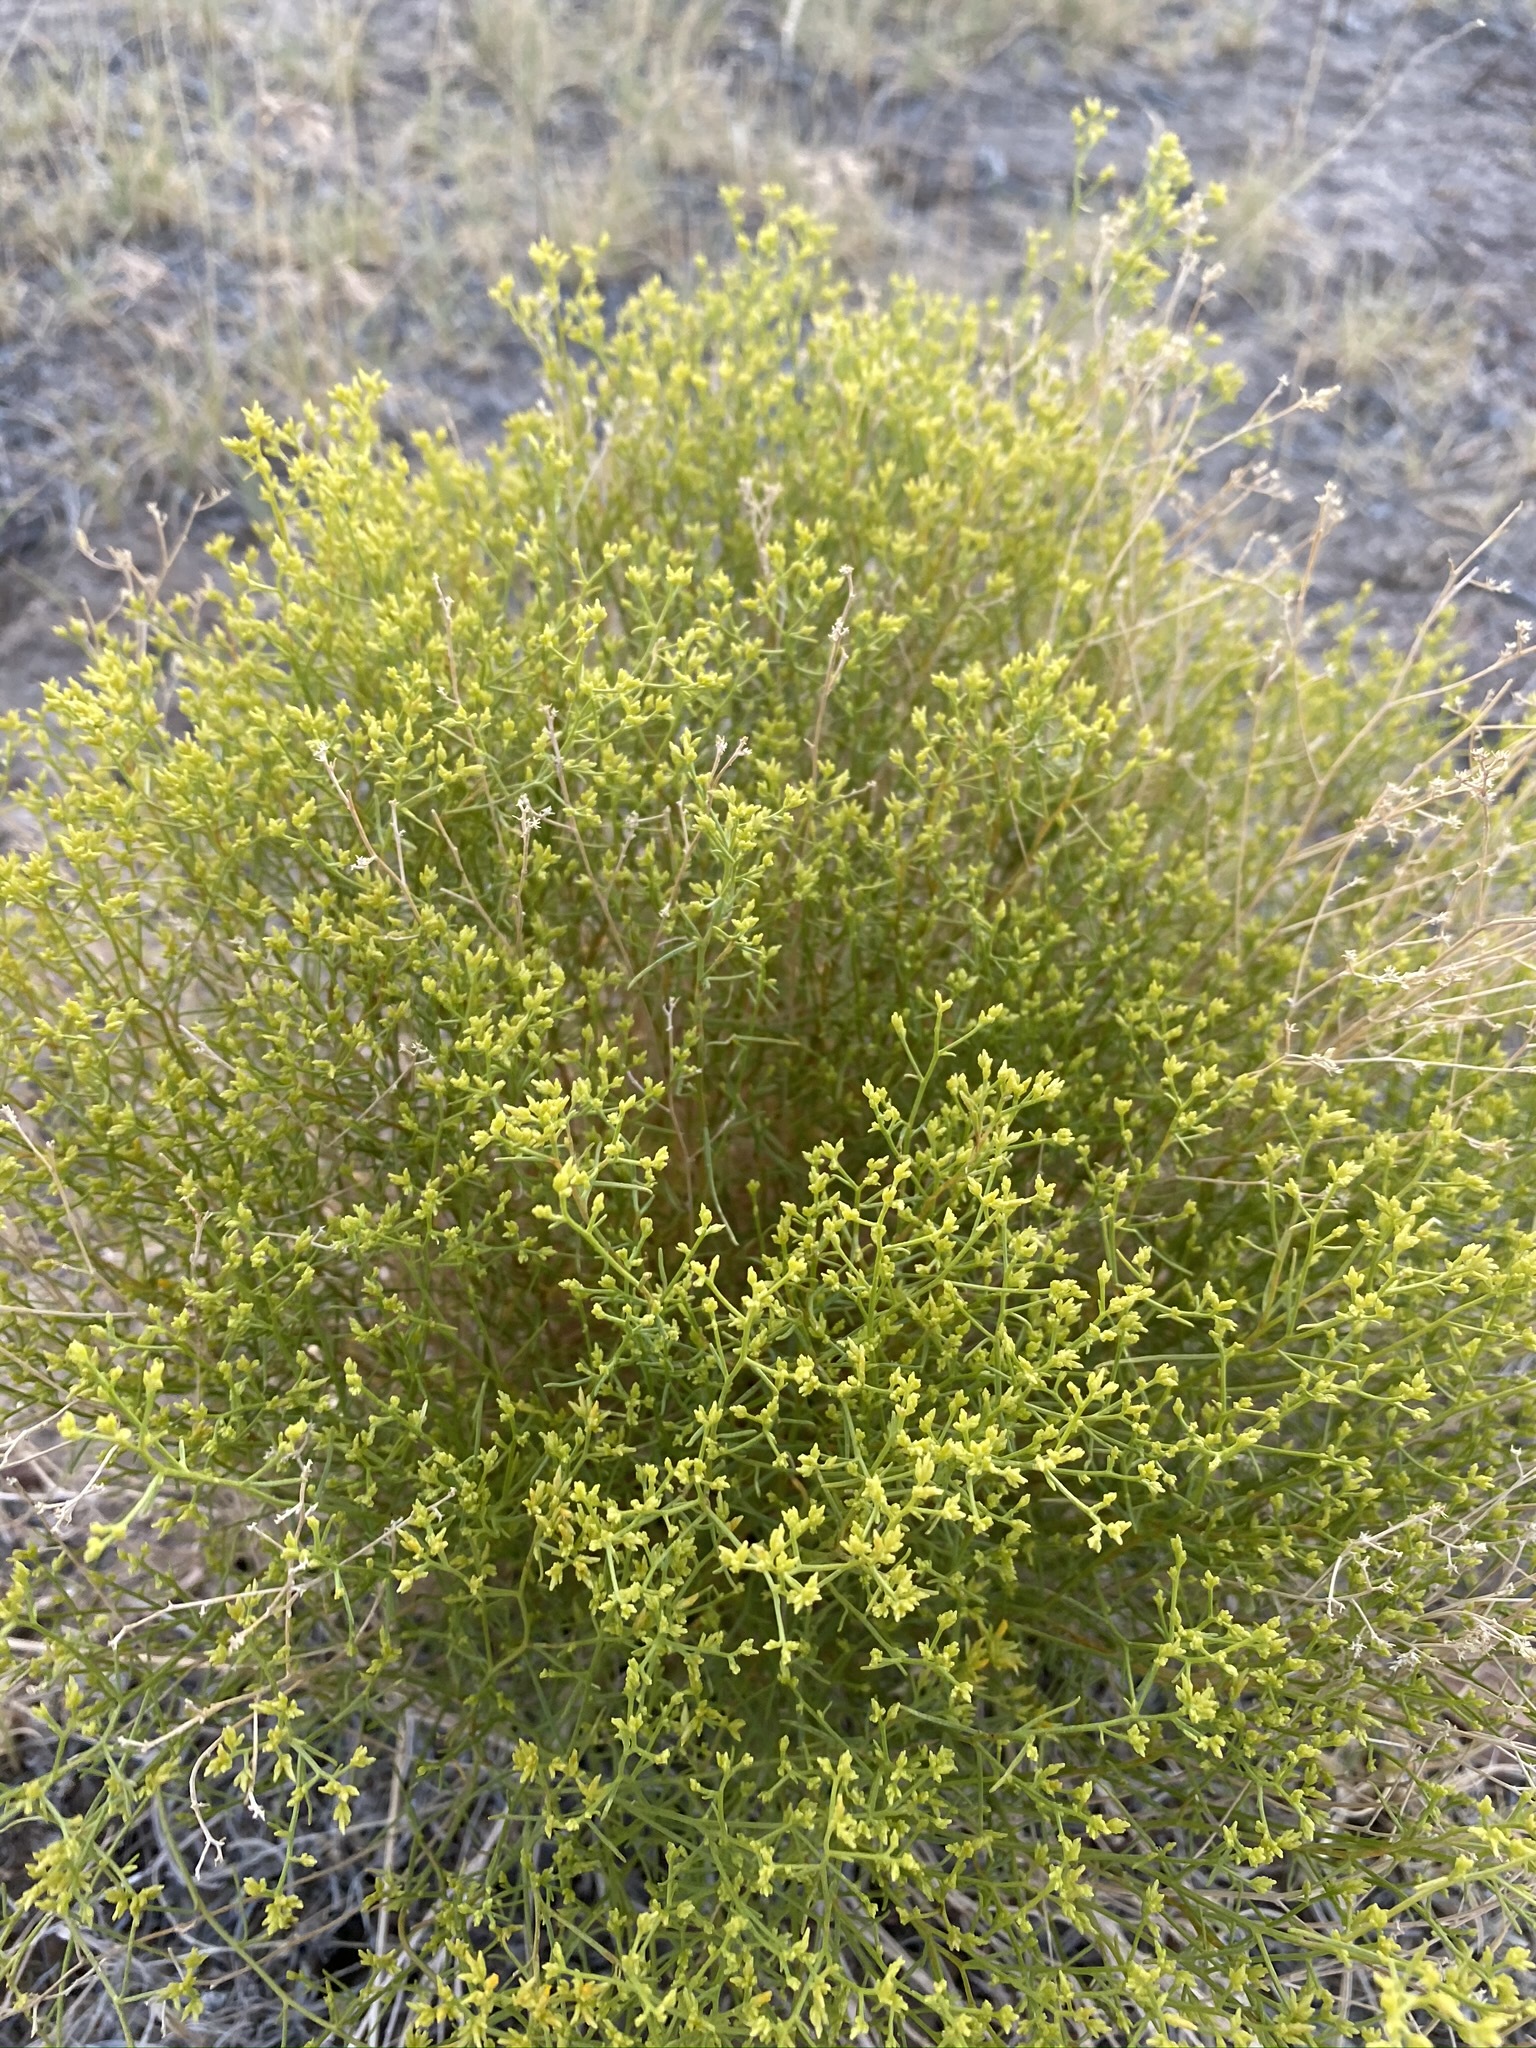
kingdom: Plantae
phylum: Tracheophyta
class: Magnoliopsida
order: Asterales
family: Asteraceae
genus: Gutierrezia
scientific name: Gutierrezia microcephala
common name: Thread snakeweed
